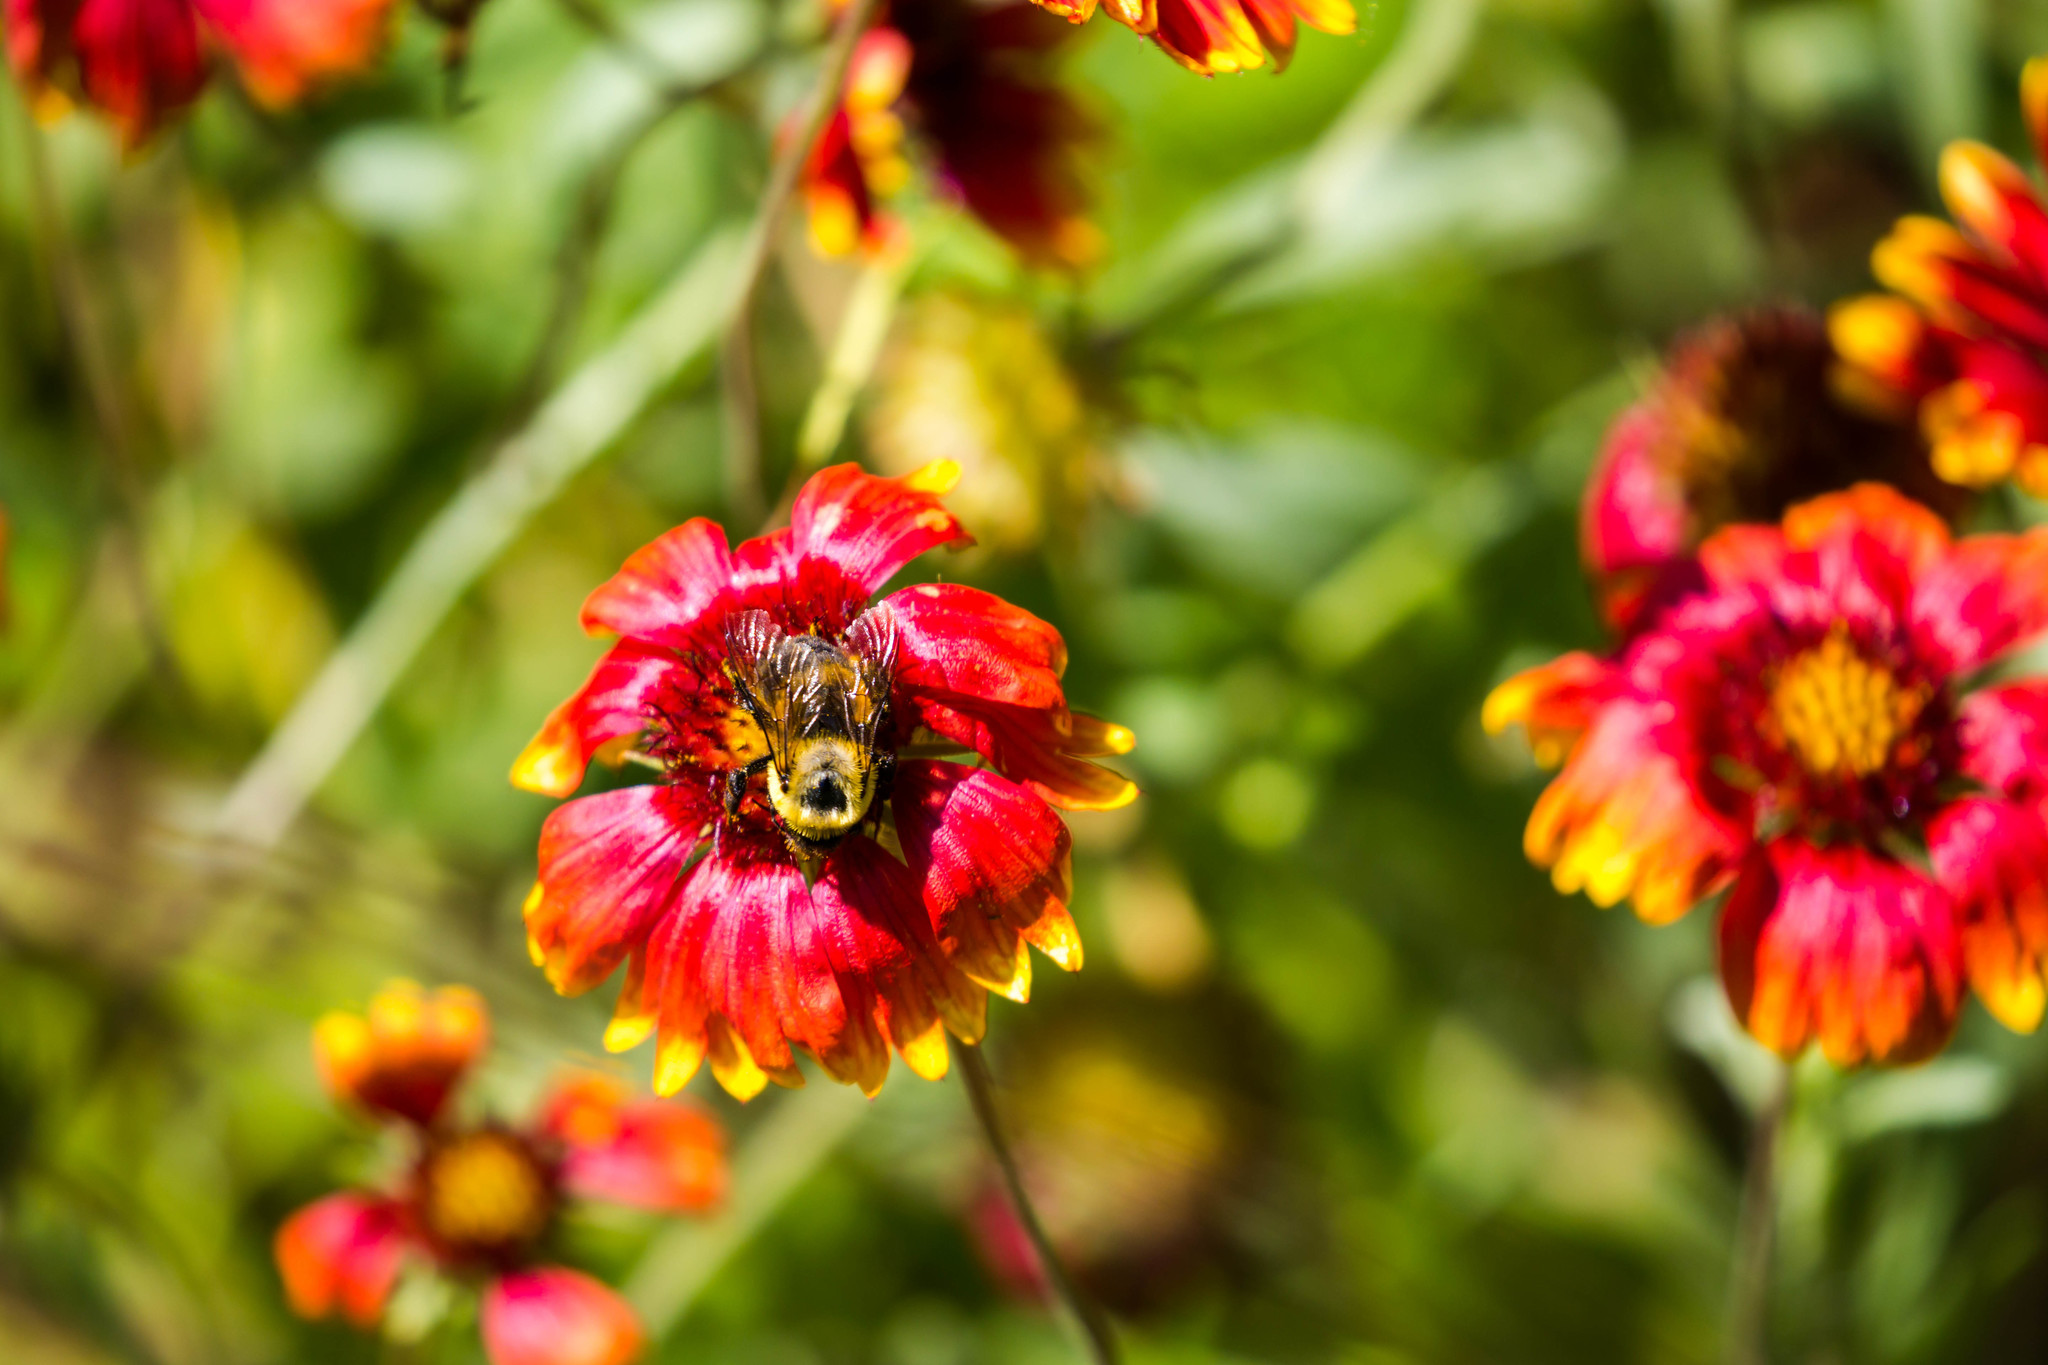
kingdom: Animalia
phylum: Arthropoda
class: Insecta
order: Hymenoptera
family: Apidae
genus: Bombus
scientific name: Bombus griseocollis
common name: Brown-belted bumble bee
